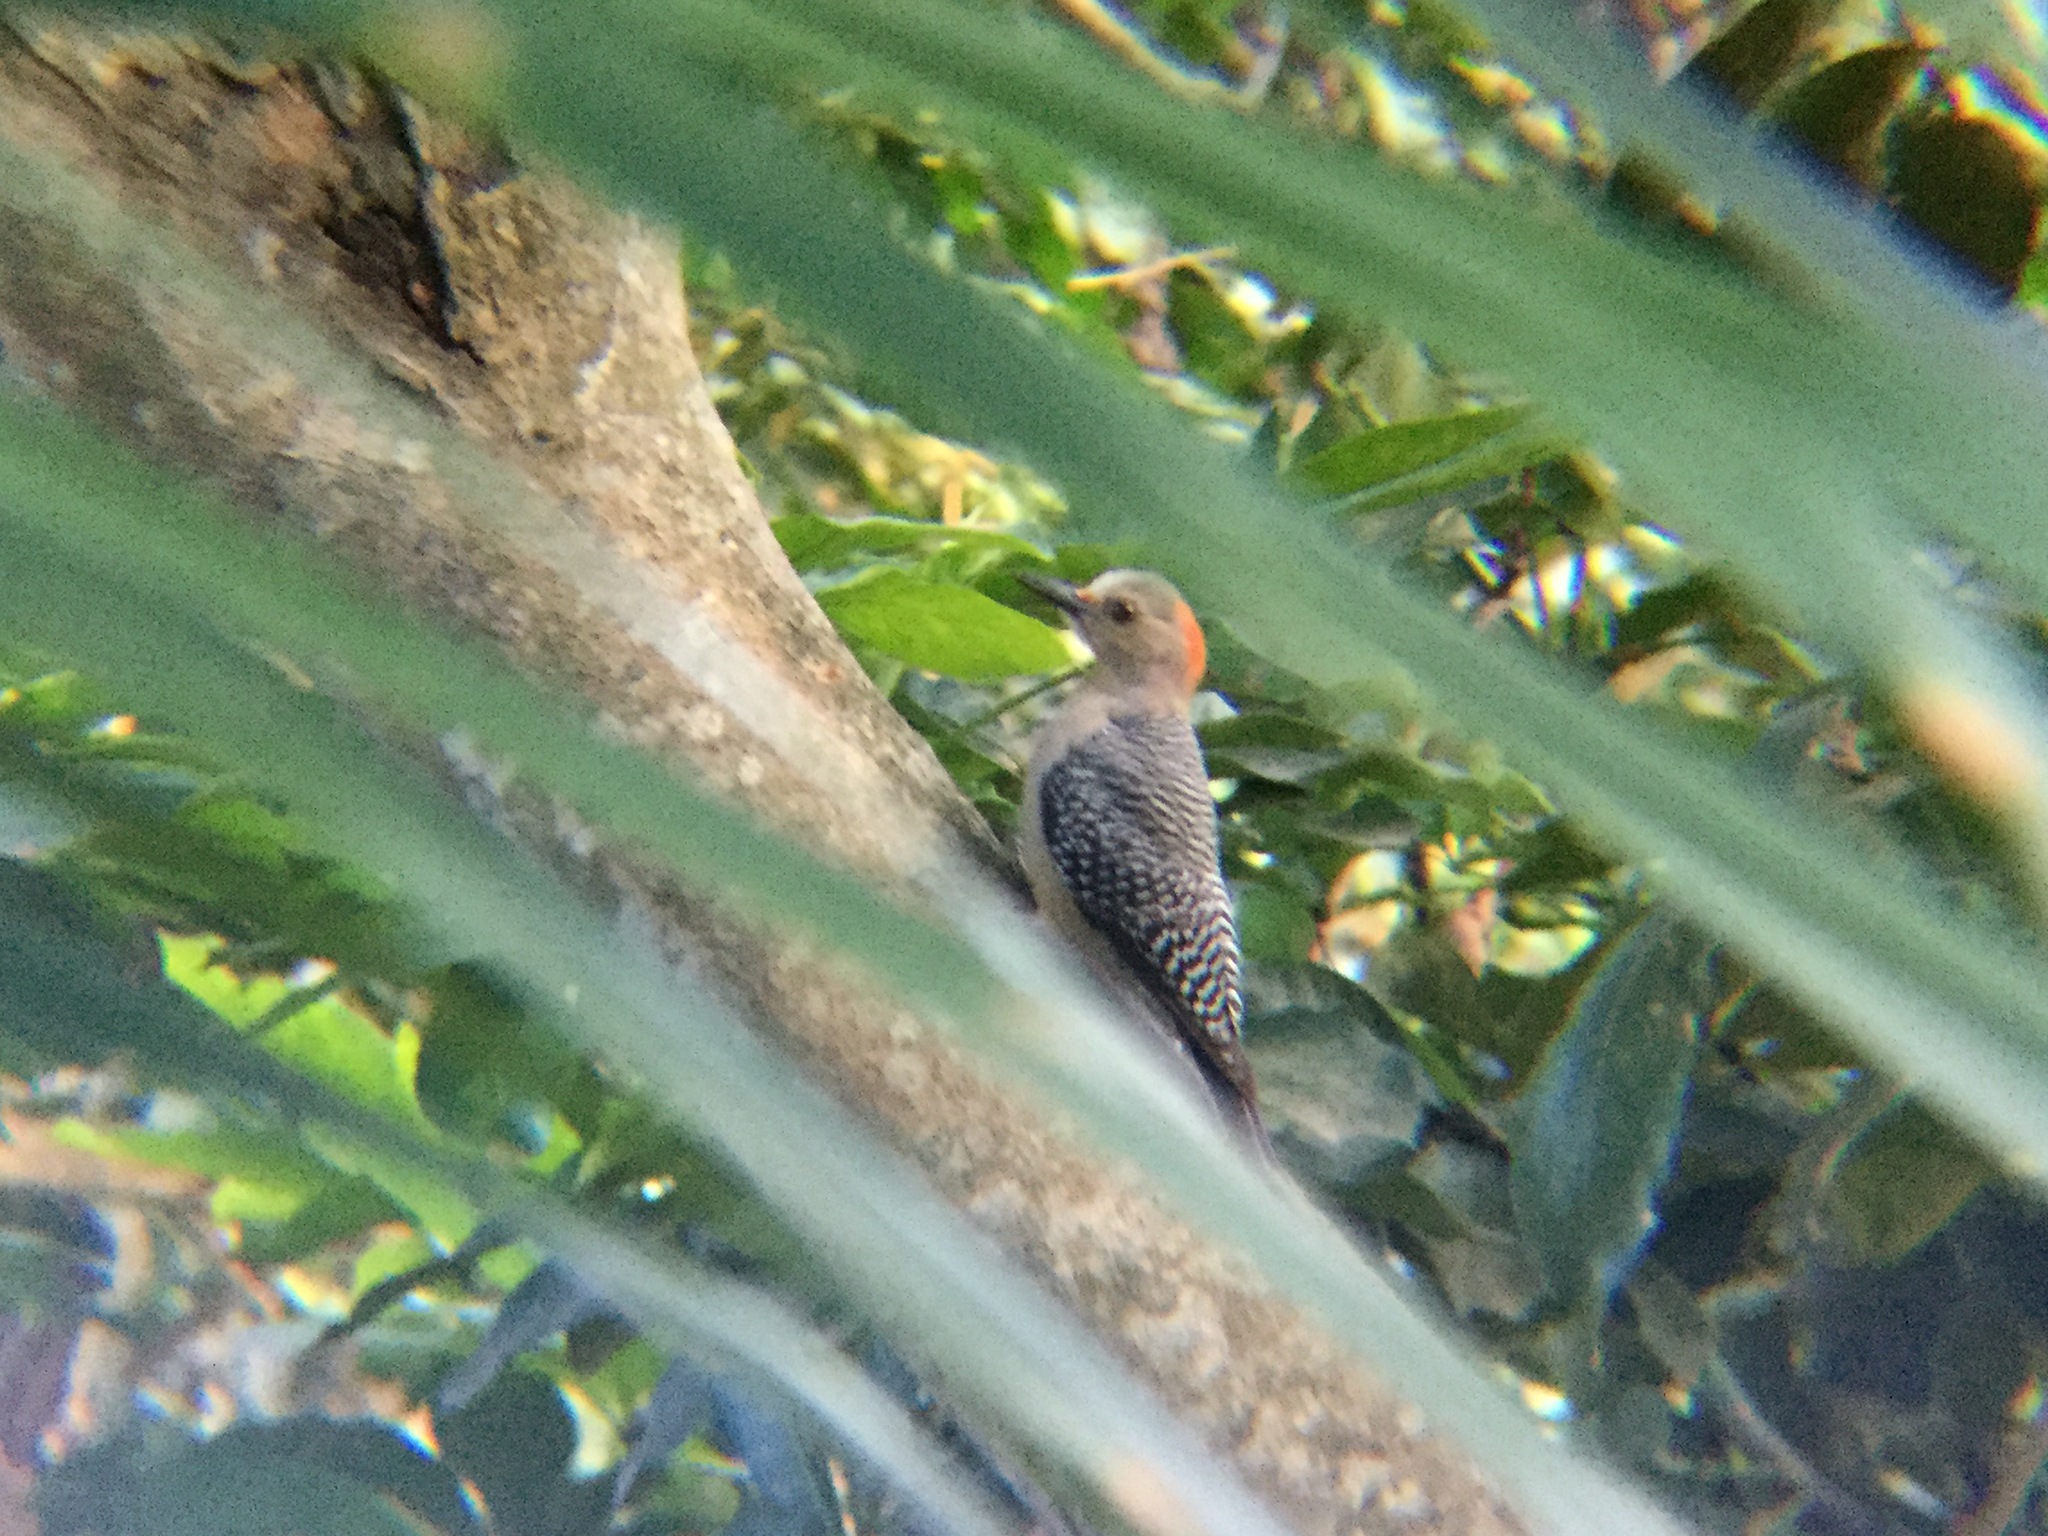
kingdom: Animalia
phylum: Chordata
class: Aves
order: Piciformes
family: Picidae
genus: Melanerpes
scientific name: Melanerpes aurifrons
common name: Golden-fronted woodpecker
